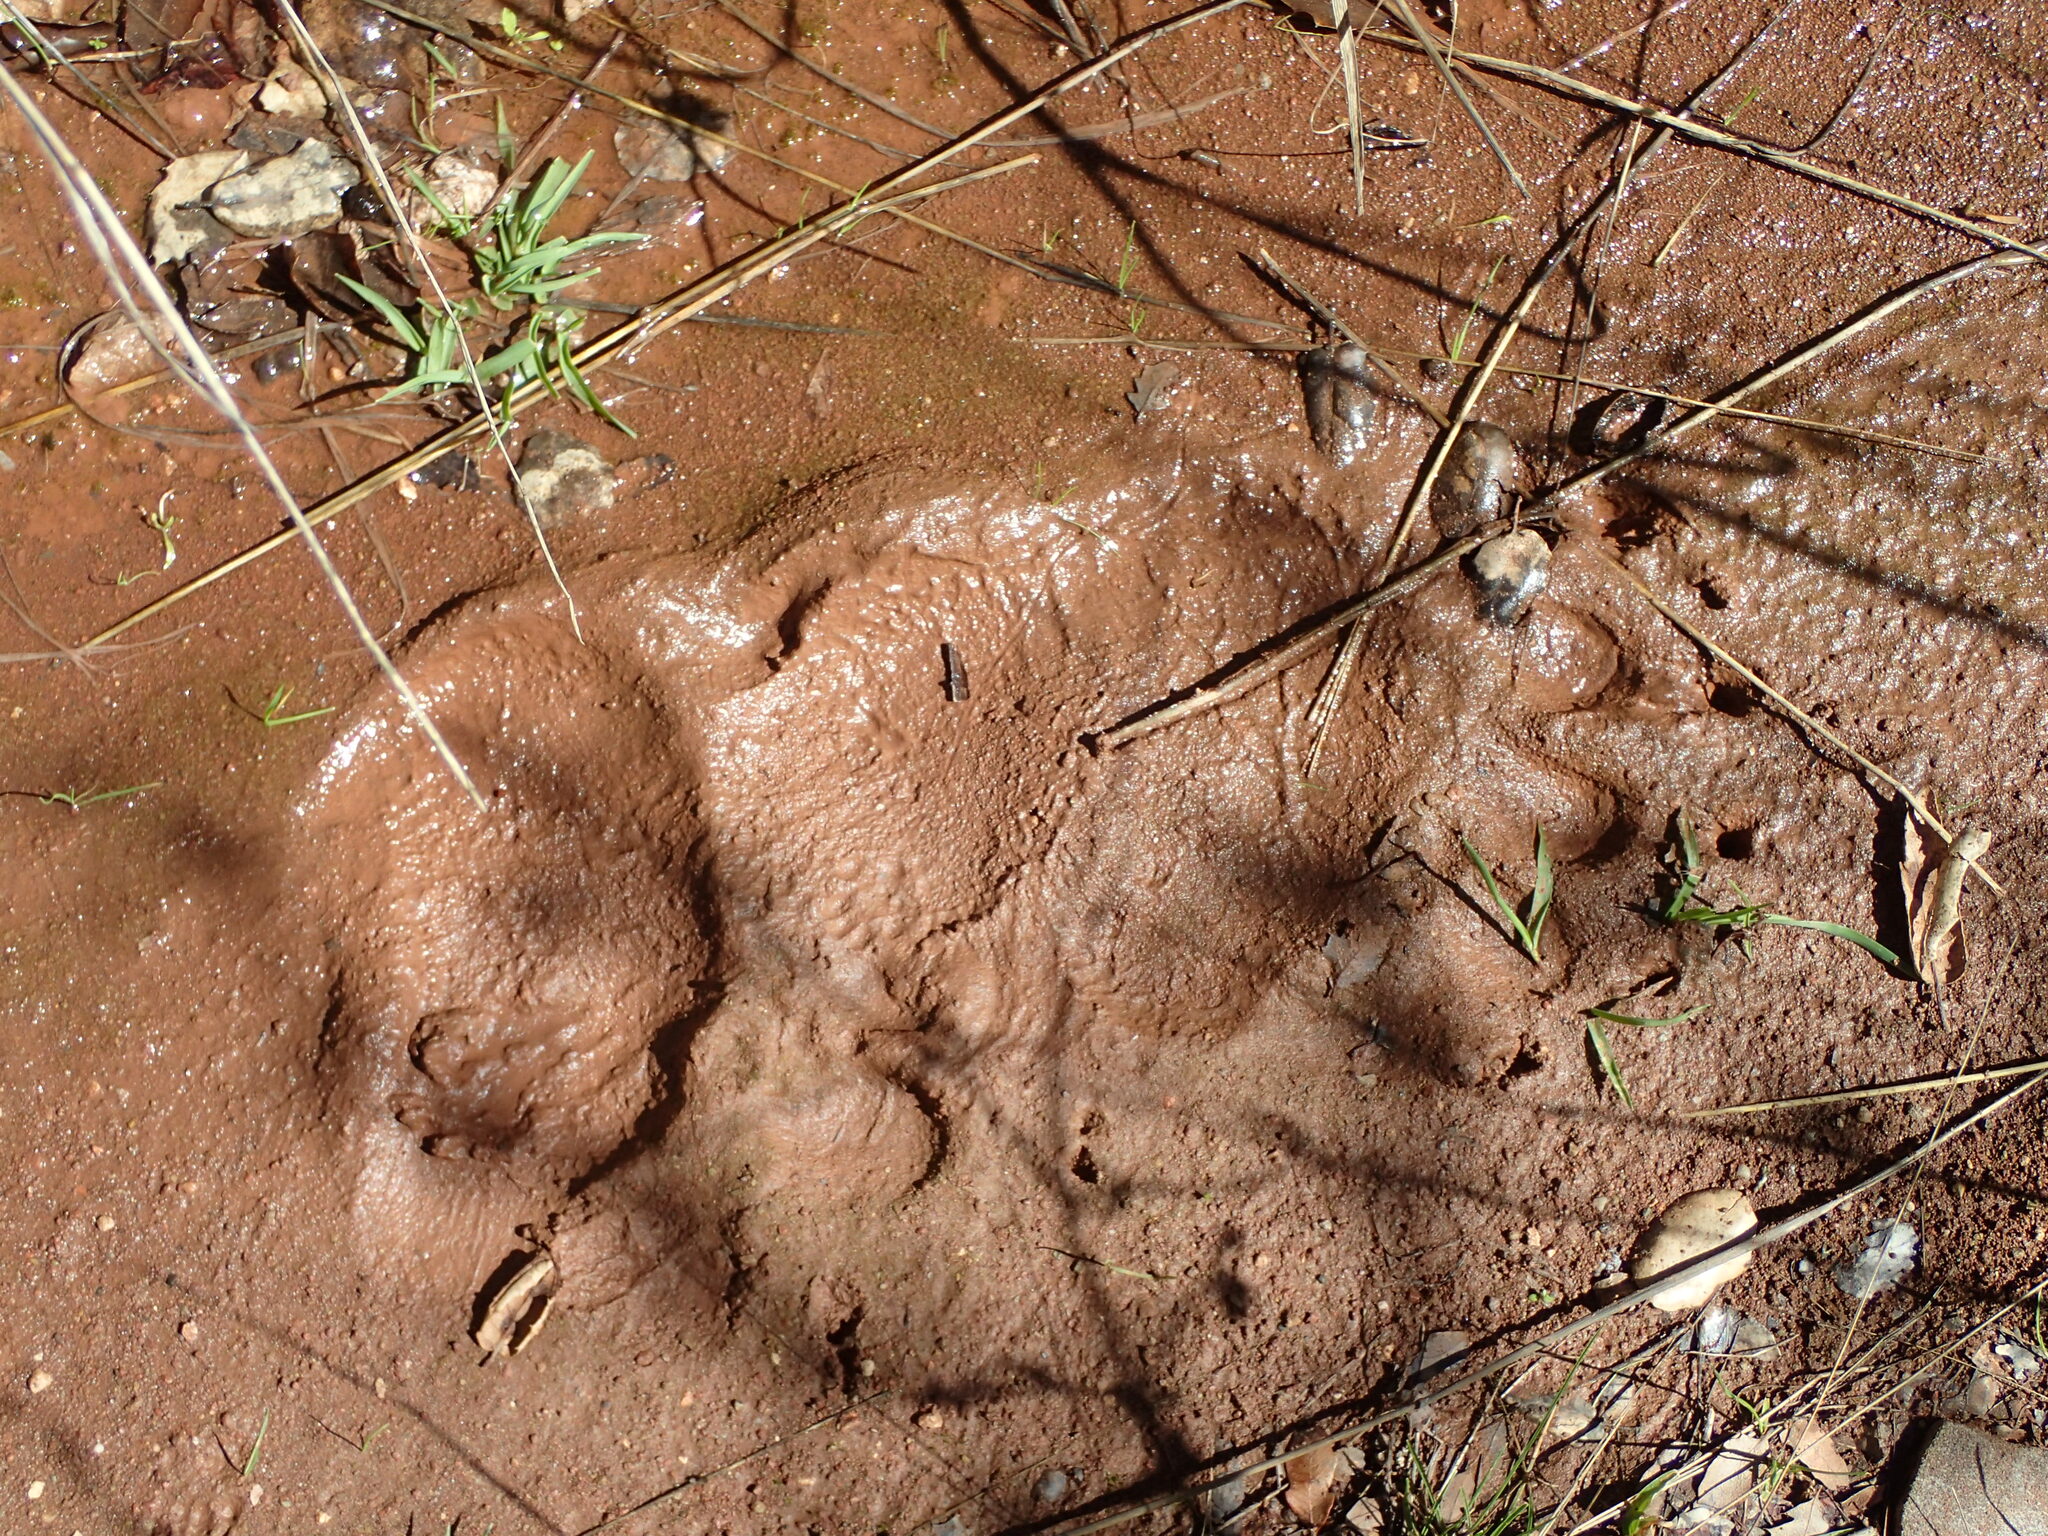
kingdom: Animalia
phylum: Chordata
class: Mammalia
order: Carnivora
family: Ursidae
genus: Ursus
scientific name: Ursus americanus
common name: American black bear
